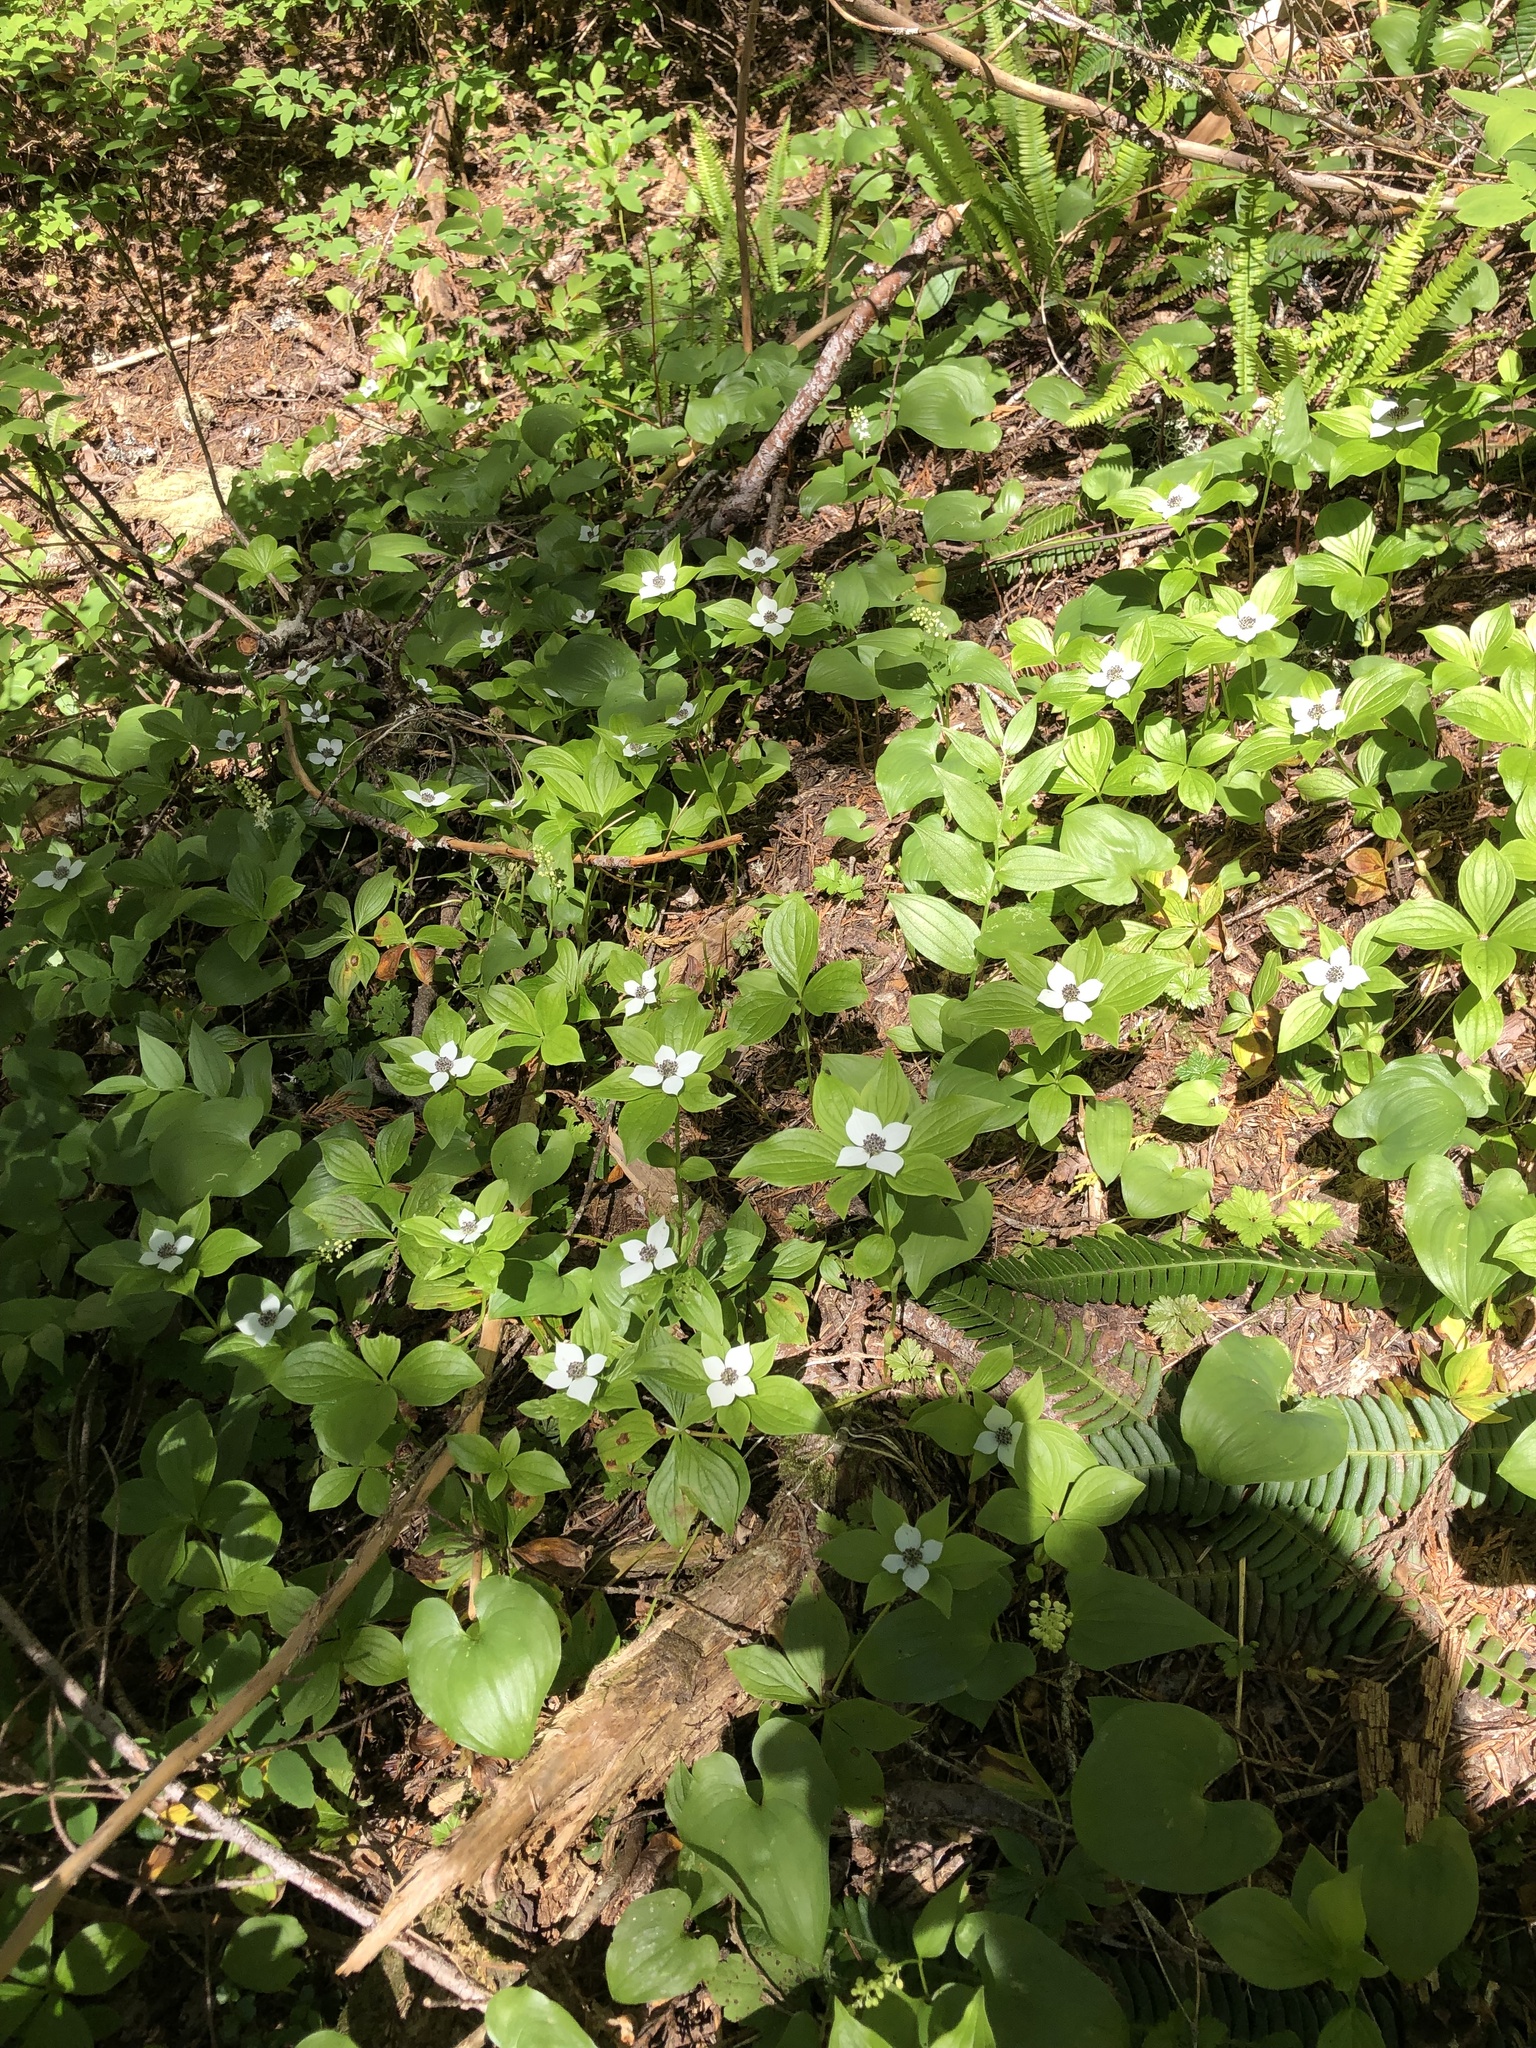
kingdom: Plantae
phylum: Tracheophyta
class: Magnoliopsida
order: Cornales
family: Cornaceae
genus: Cornus
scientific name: Cornus unalaschkensis
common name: Alaska bunchberry
